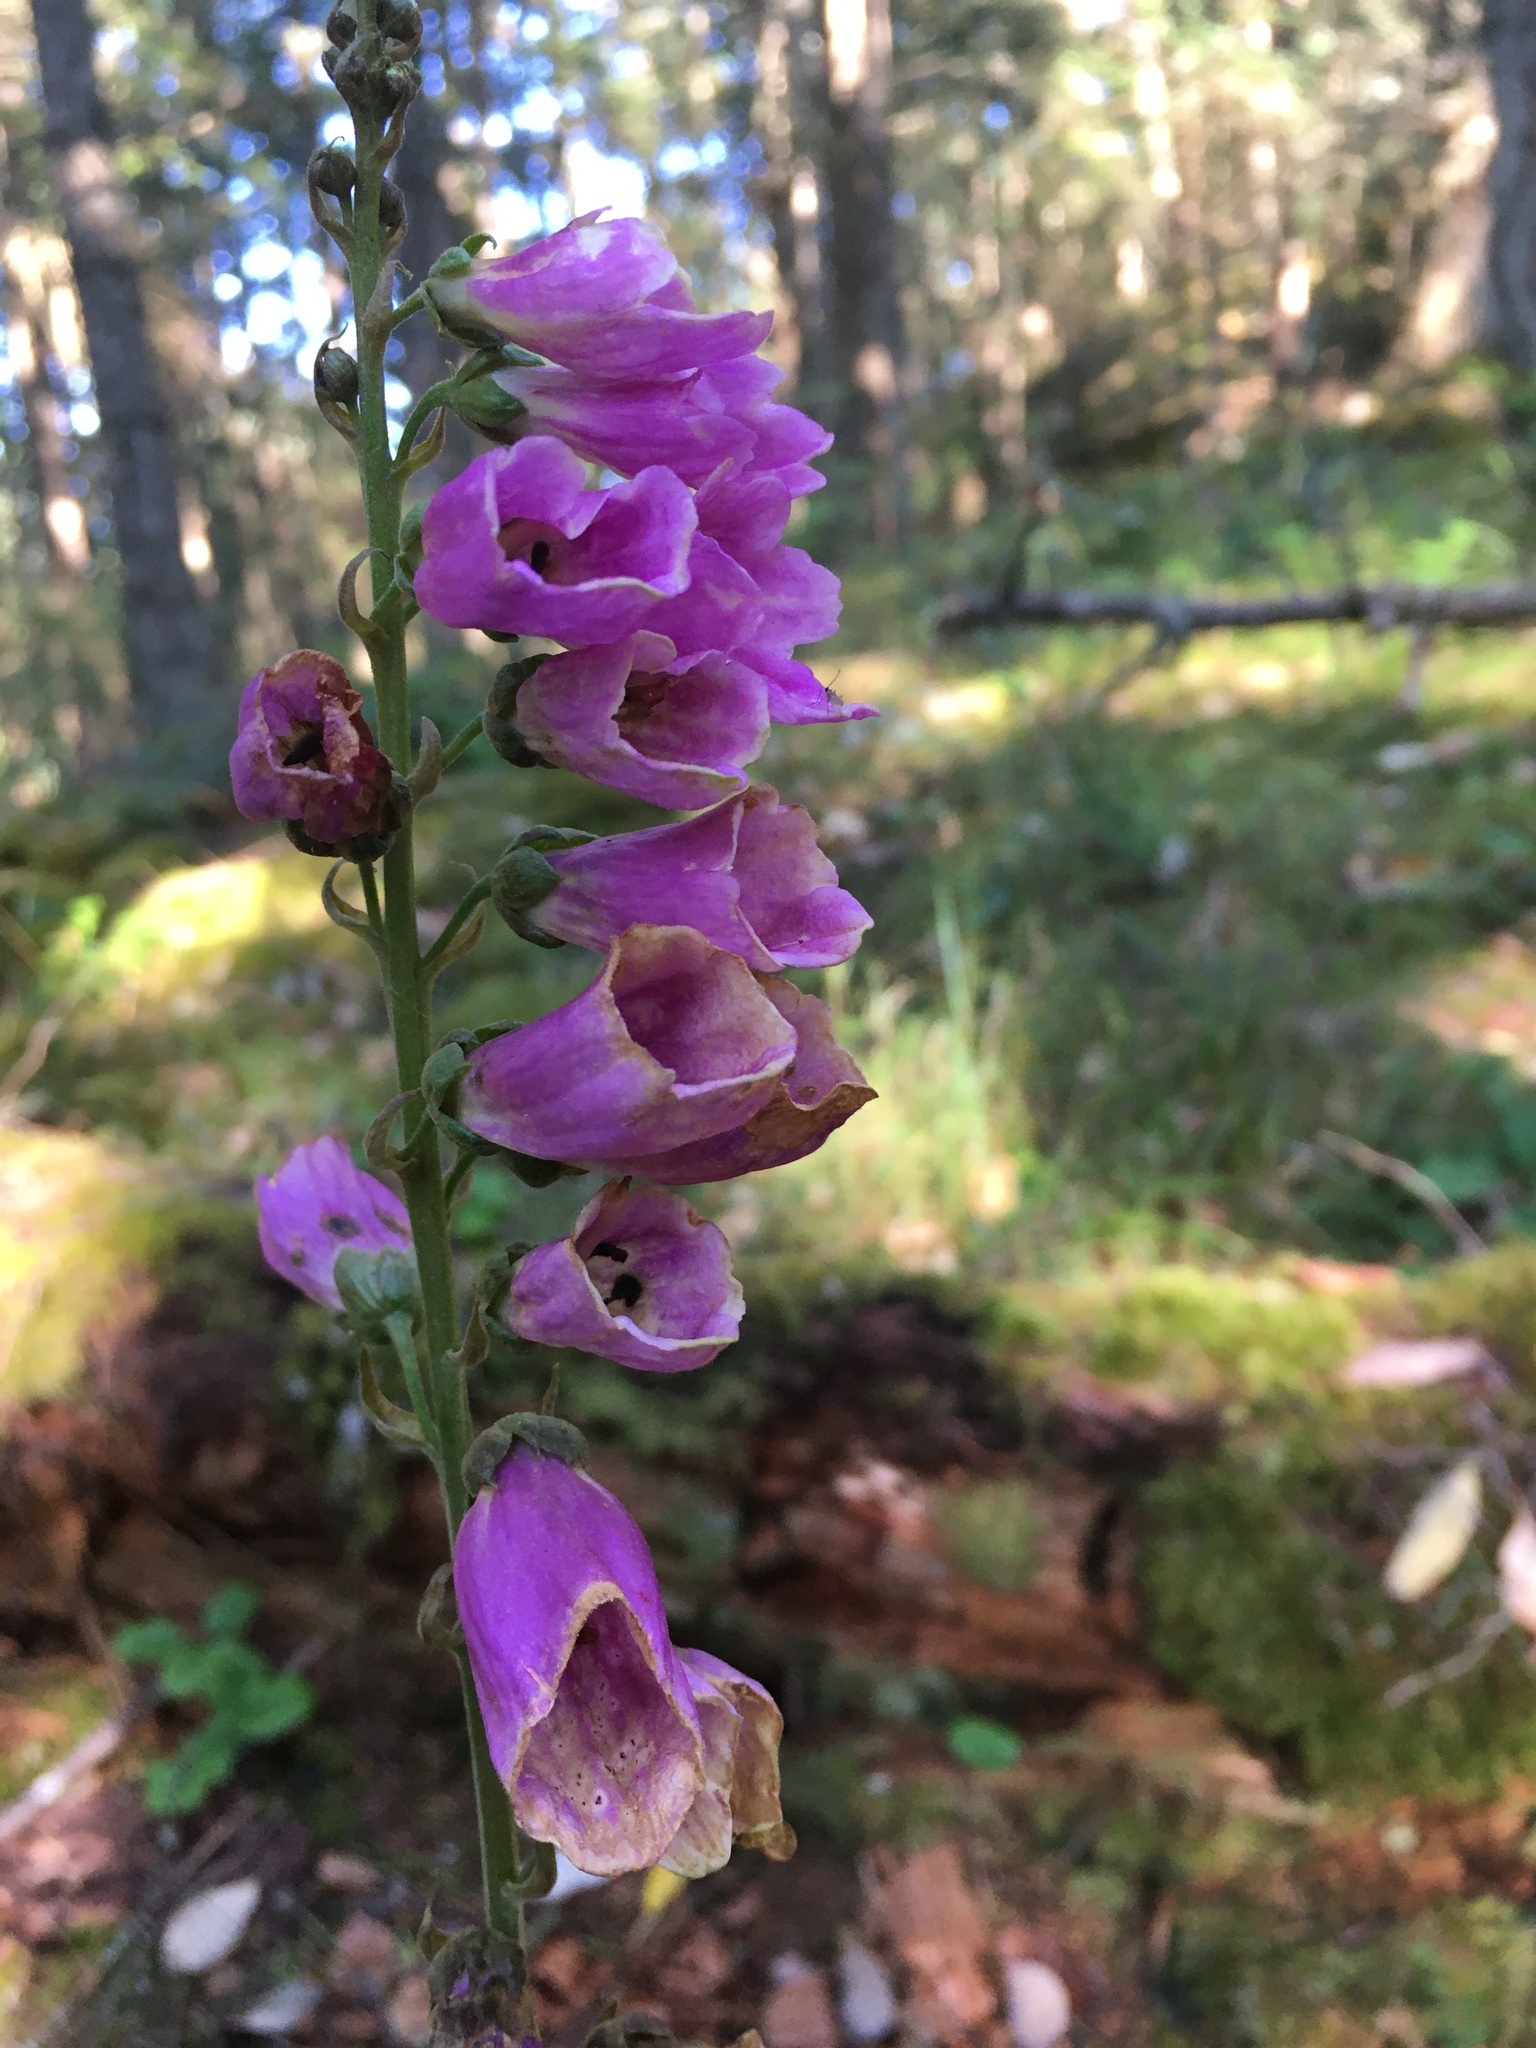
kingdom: Plantae
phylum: Tracheophyta
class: Magnoliopsida
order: Lamiales
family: Plantaginaceae
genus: Digitalis
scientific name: Digitalis purpurea
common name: Foxglove
